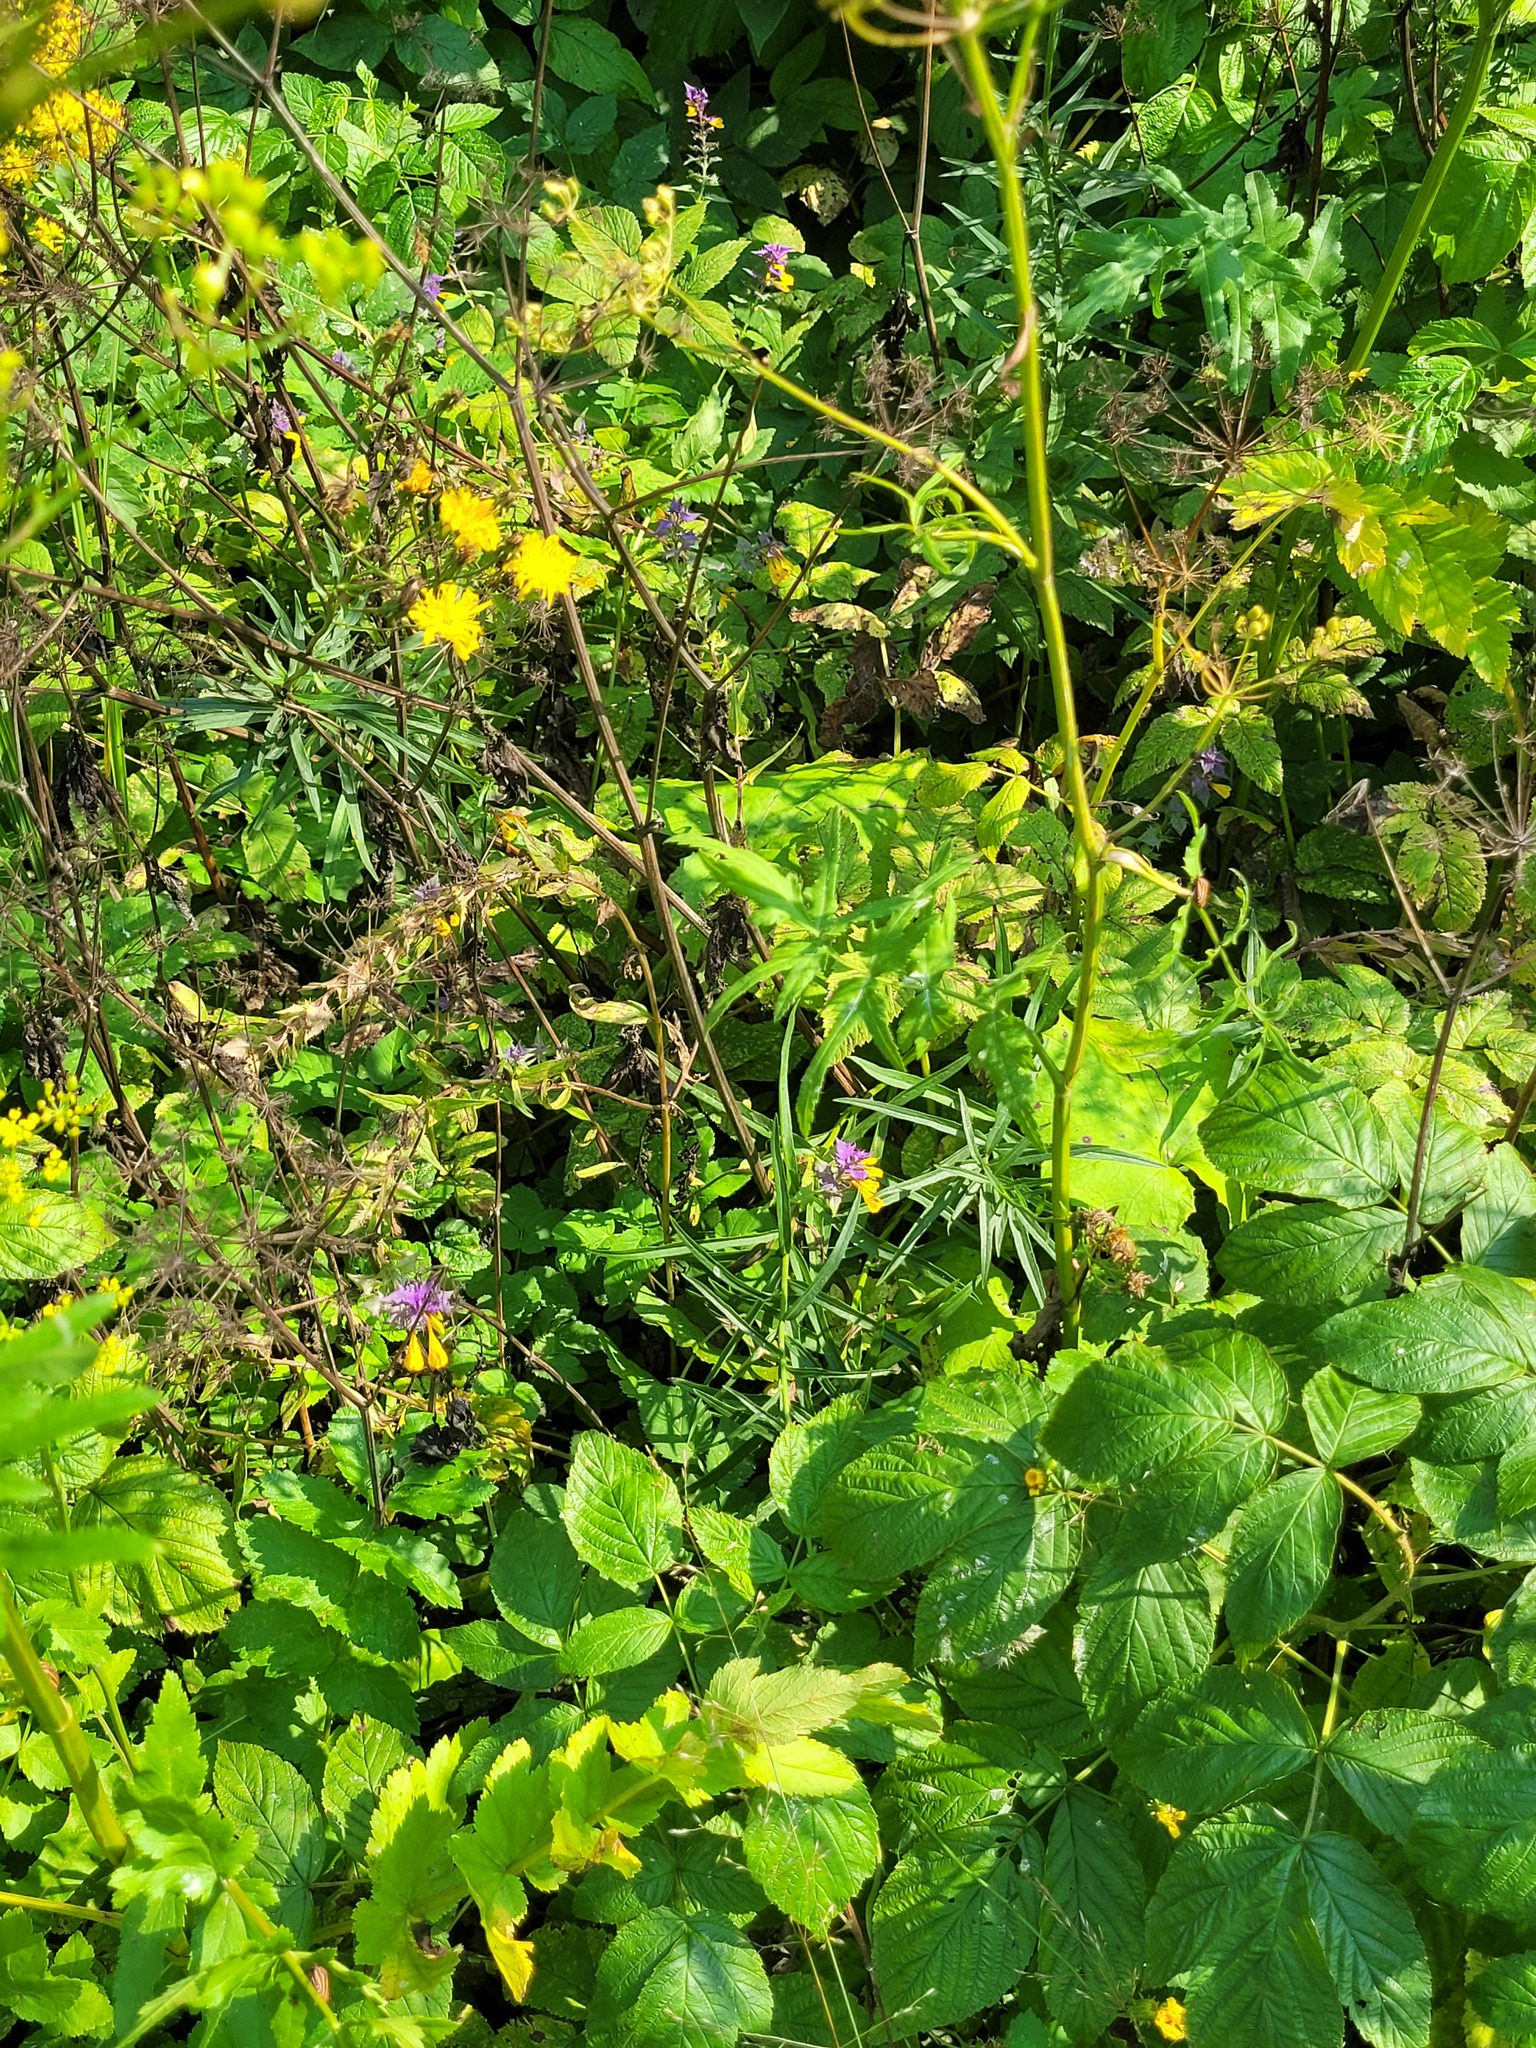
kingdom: Plantae
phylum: Tracheophyta
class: Magnoliopsida
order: Lamiales
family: Orobanchaceae
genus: Melampyrum
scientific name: Melampyrum nemorosum
